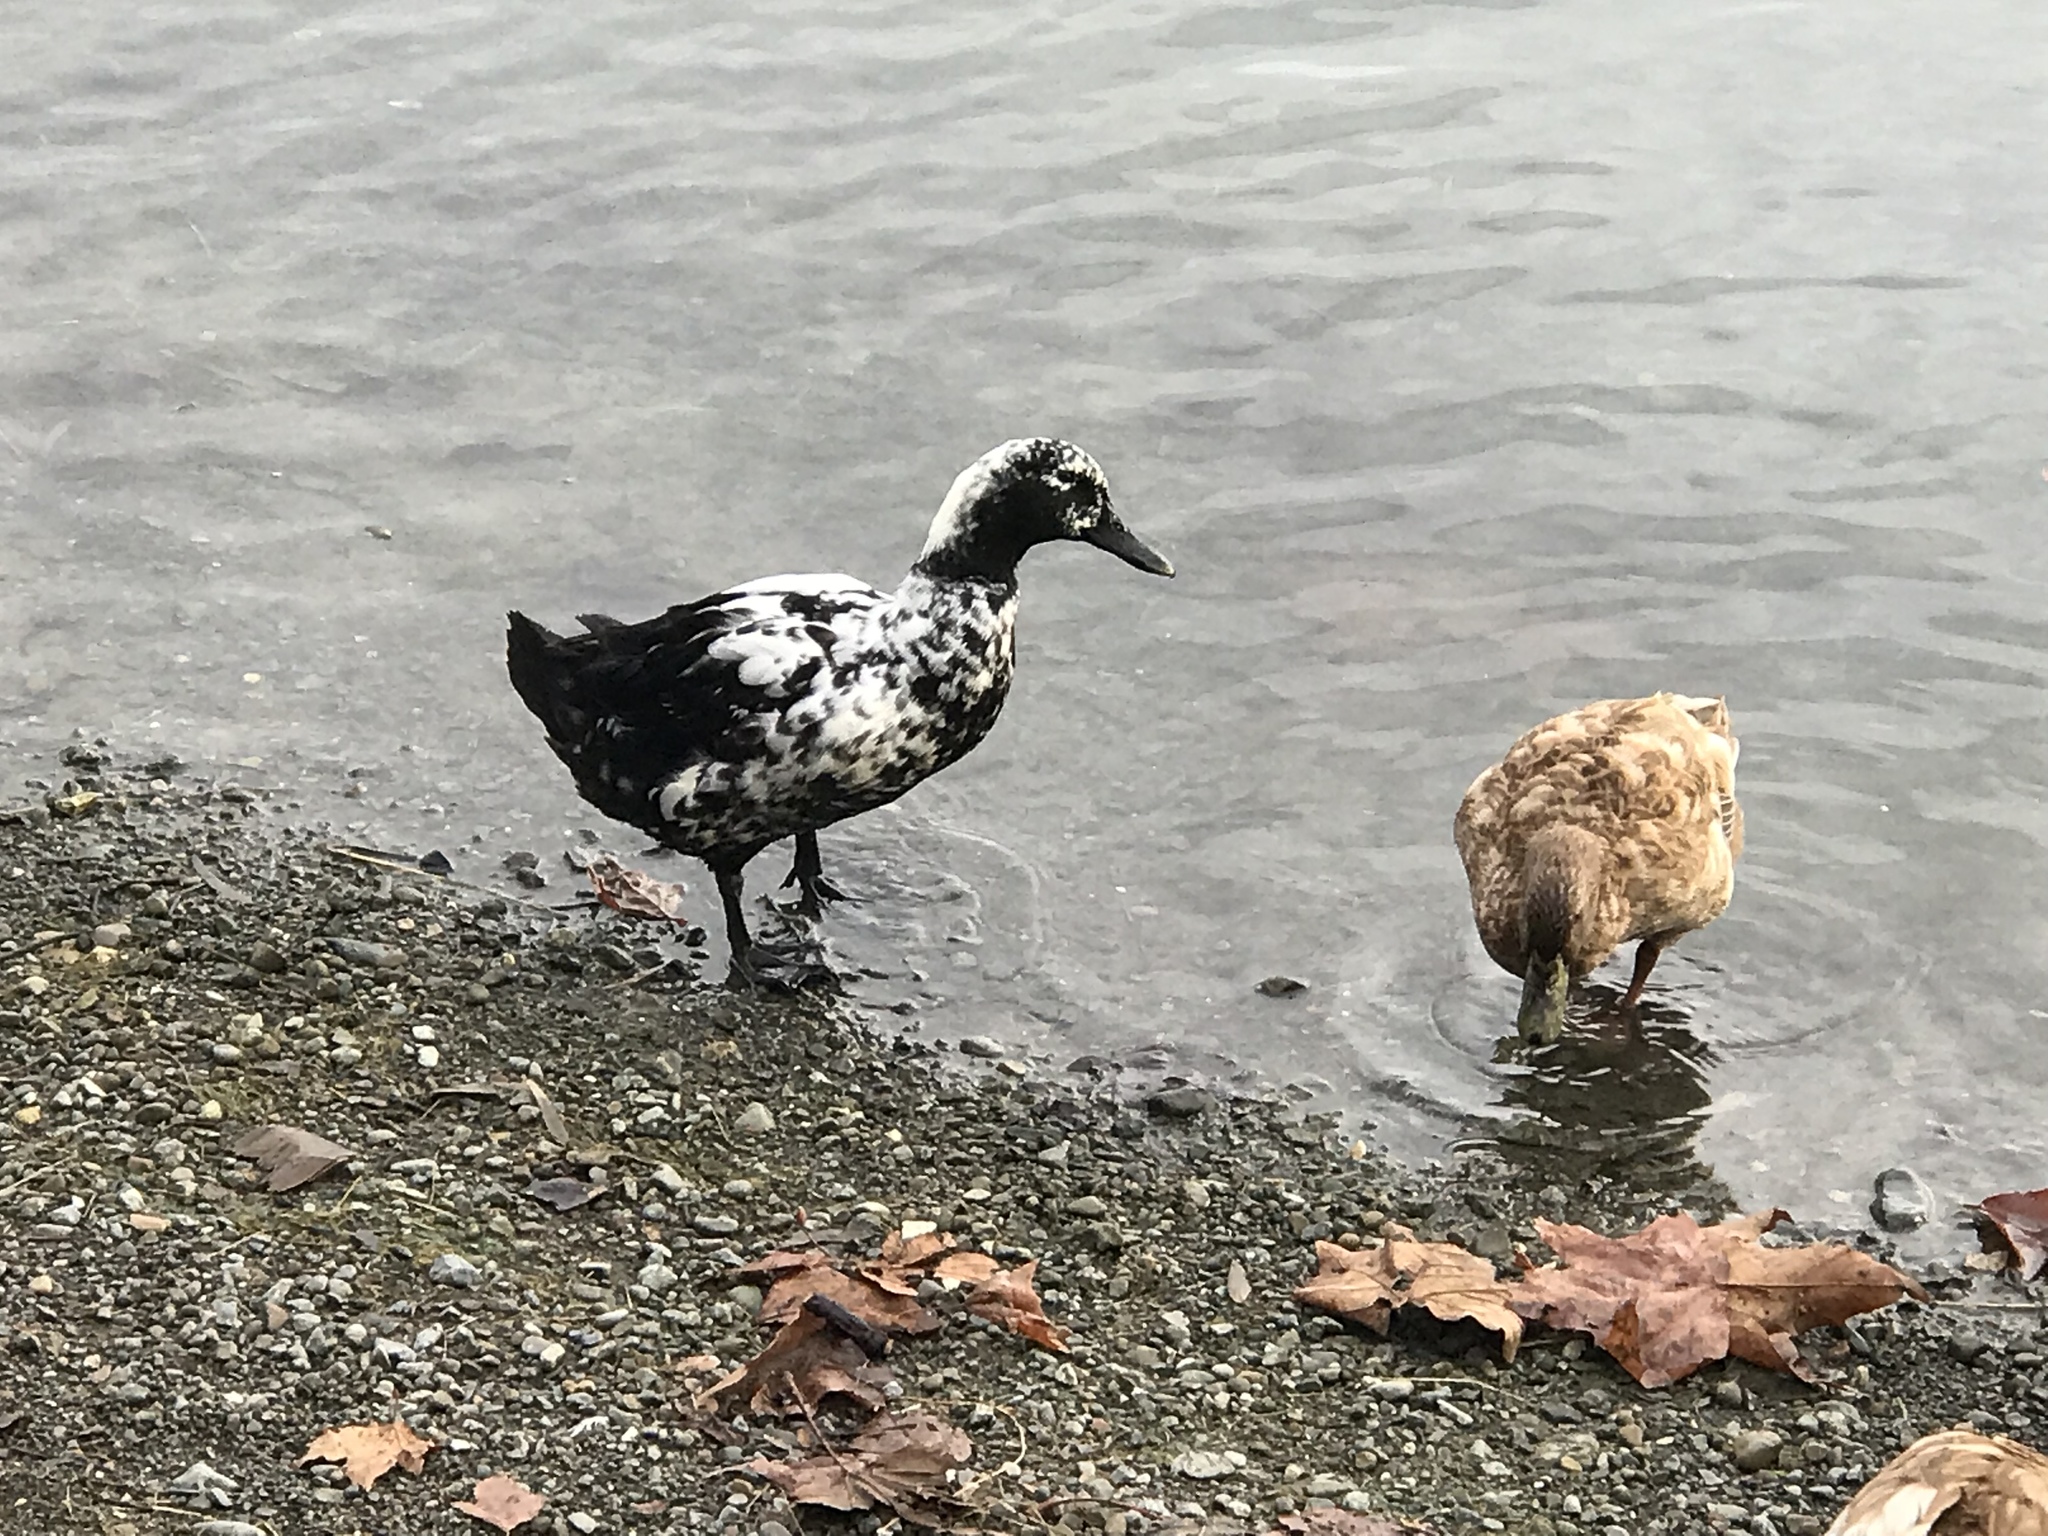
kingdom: Animalia
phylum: Chordata
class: Aves
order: Anseriformes
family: Anatidae
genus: Anas
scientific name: Anas platyrhynchos
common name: Mallard
